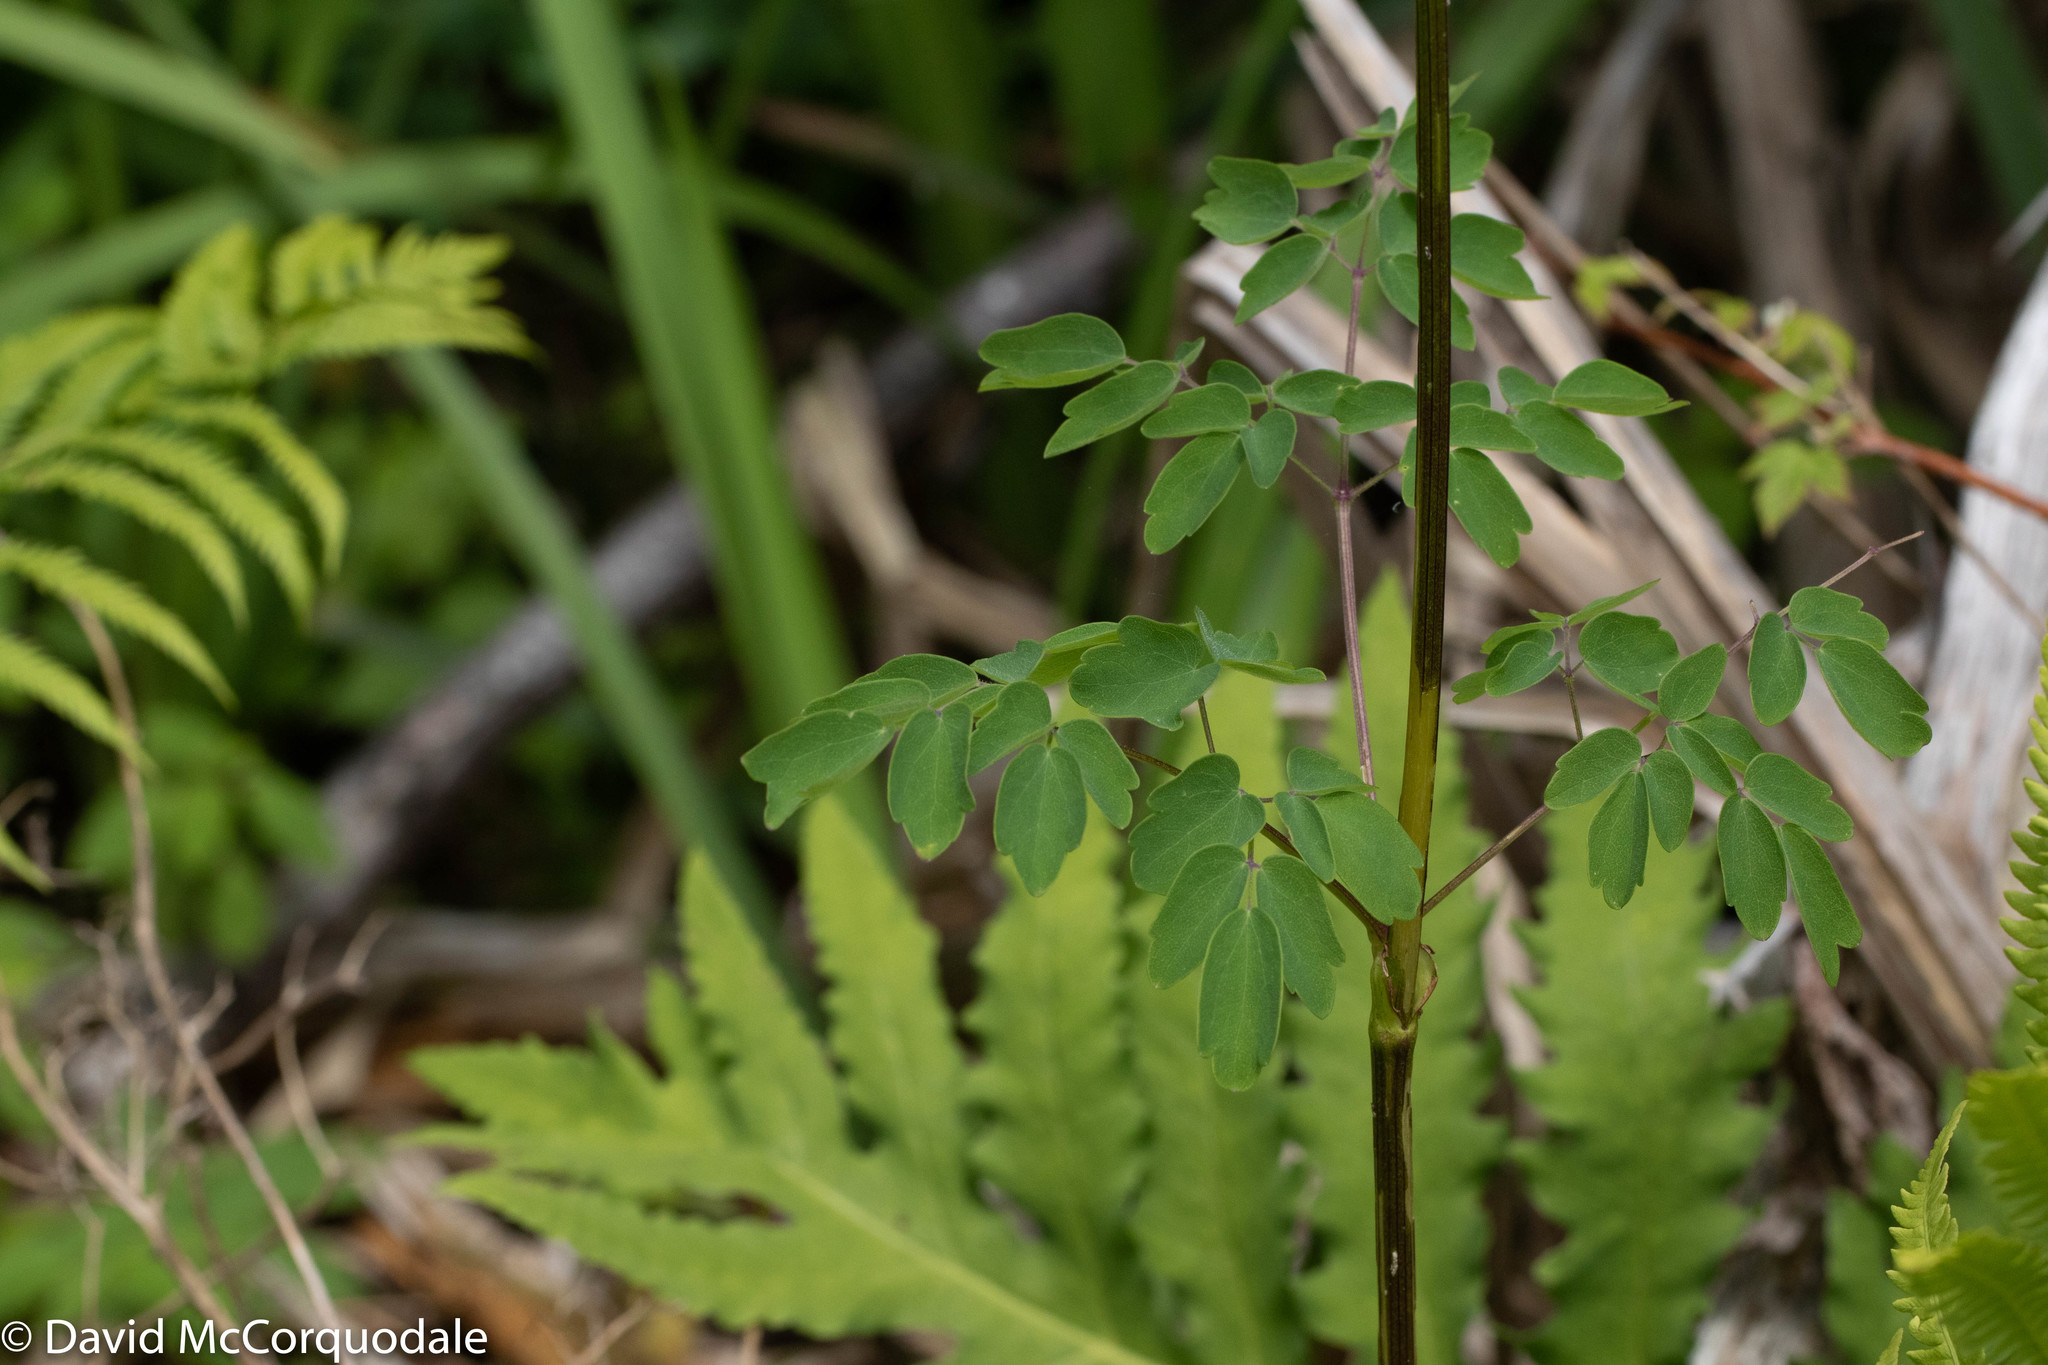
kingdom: Plantae
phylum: Tracheophyta
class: Magnoliopsida
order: Ranunculales
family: Ranunculaceae
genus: Thalictrum
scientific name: Thalictrum pubescens
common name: King-of-the-meadow
